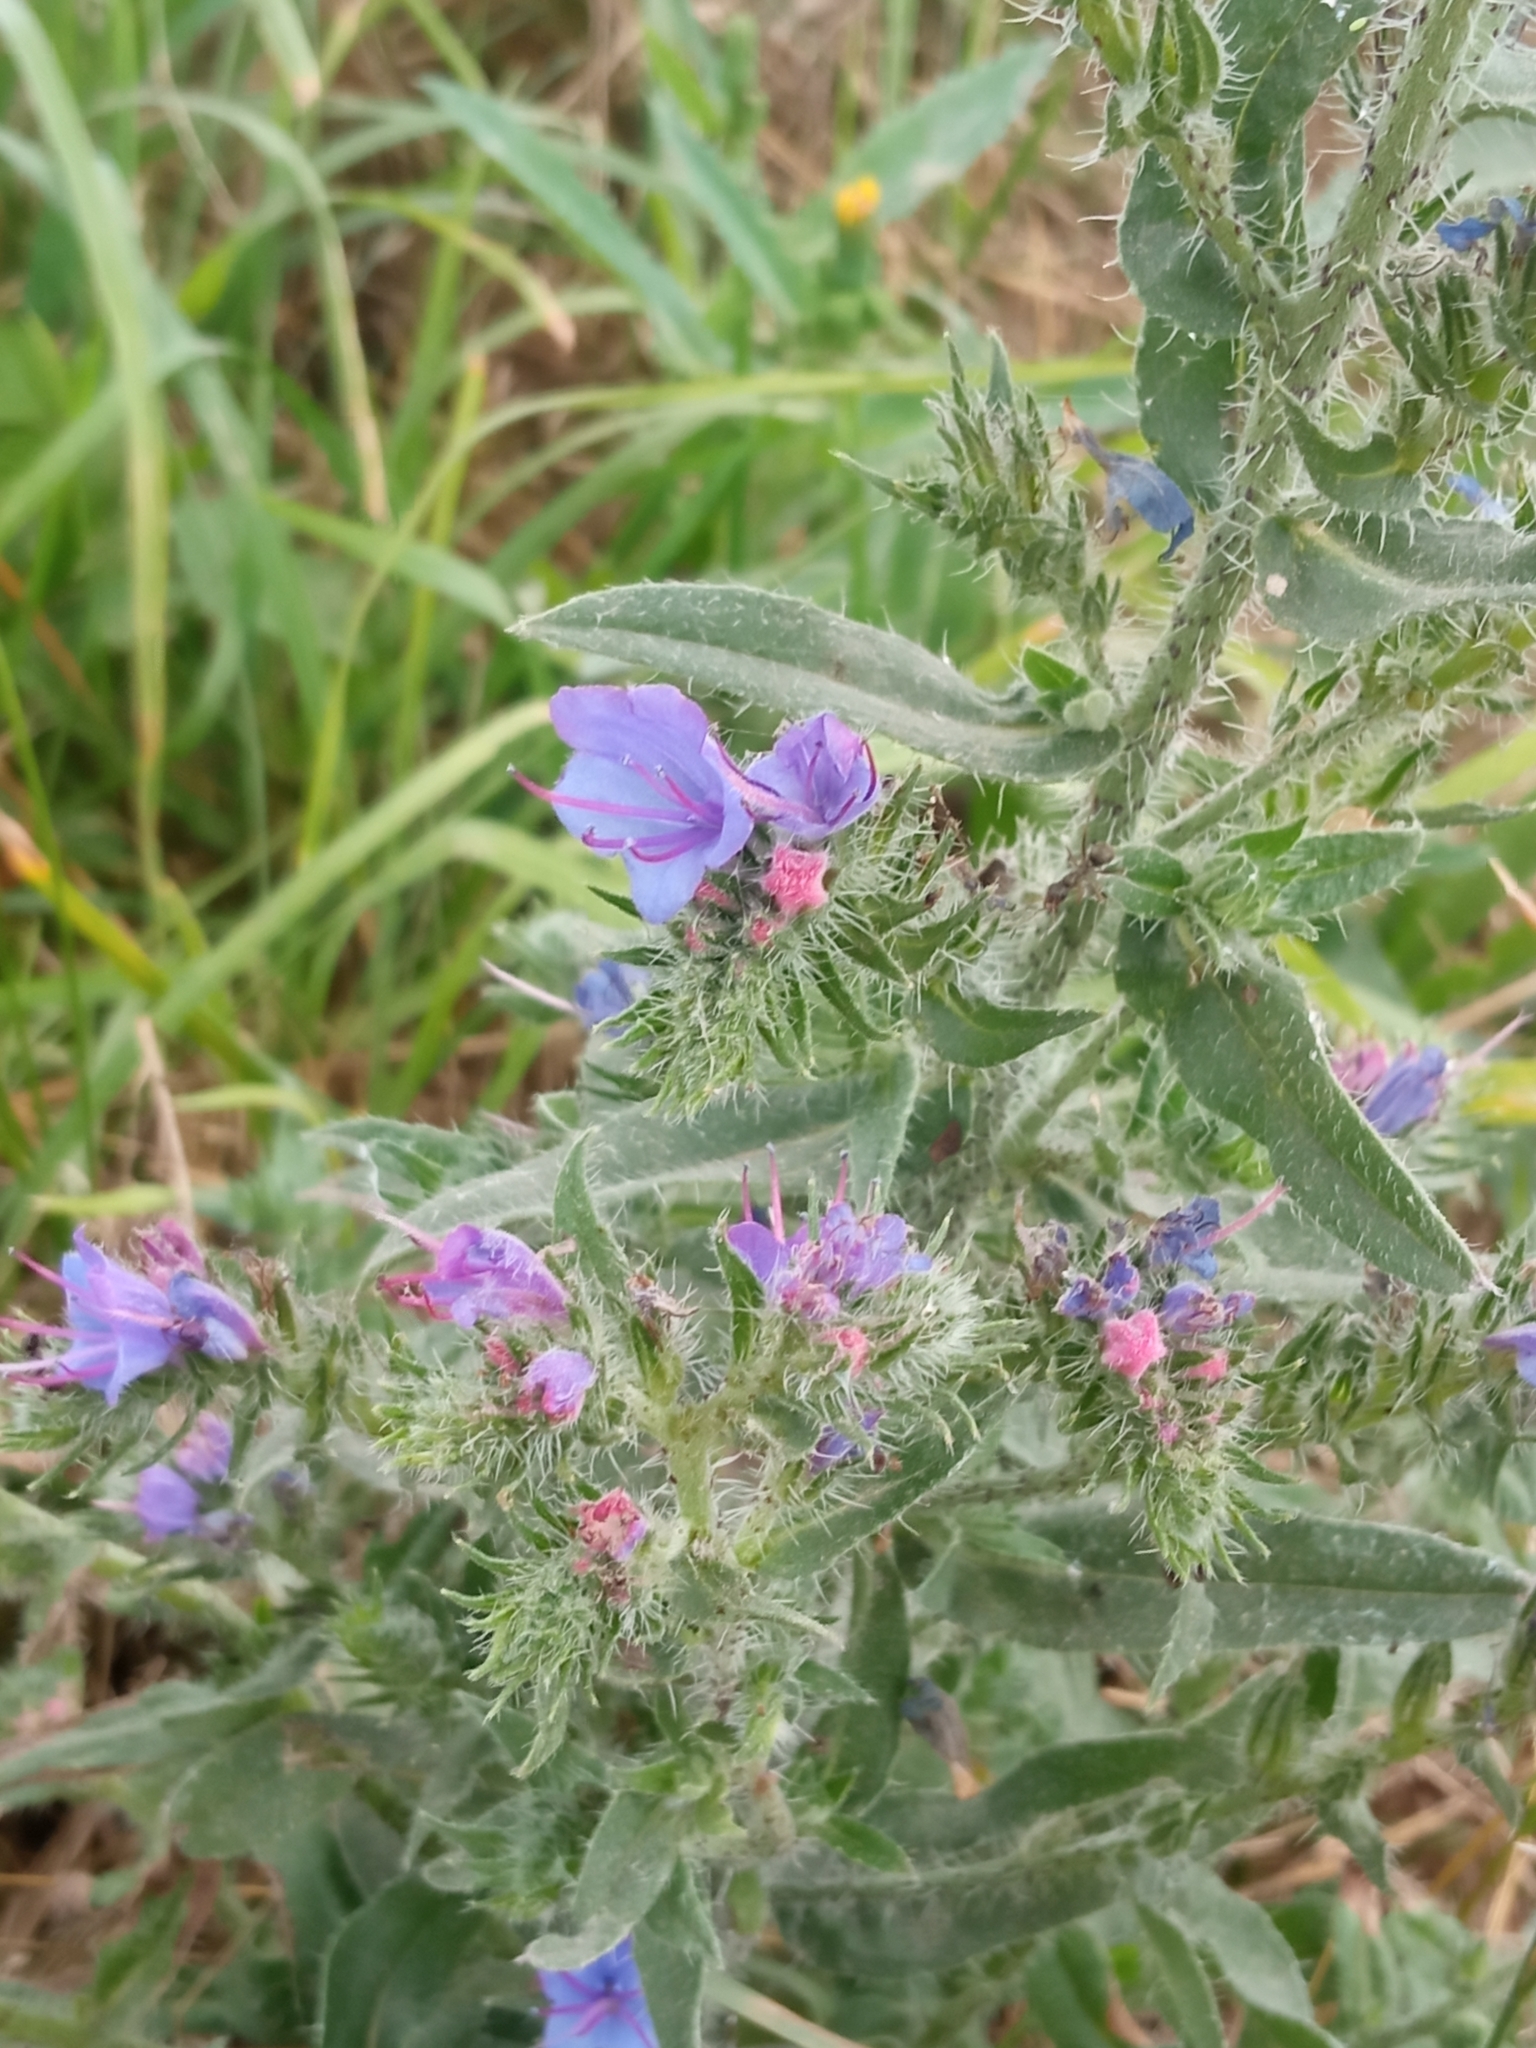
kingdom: Plantae
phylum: Tracheophyta
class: Magnoliopsida
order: Boraginales
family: Boraginaceae
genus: Echium
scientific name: Echium vulgare
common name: Common viper's bugloss
